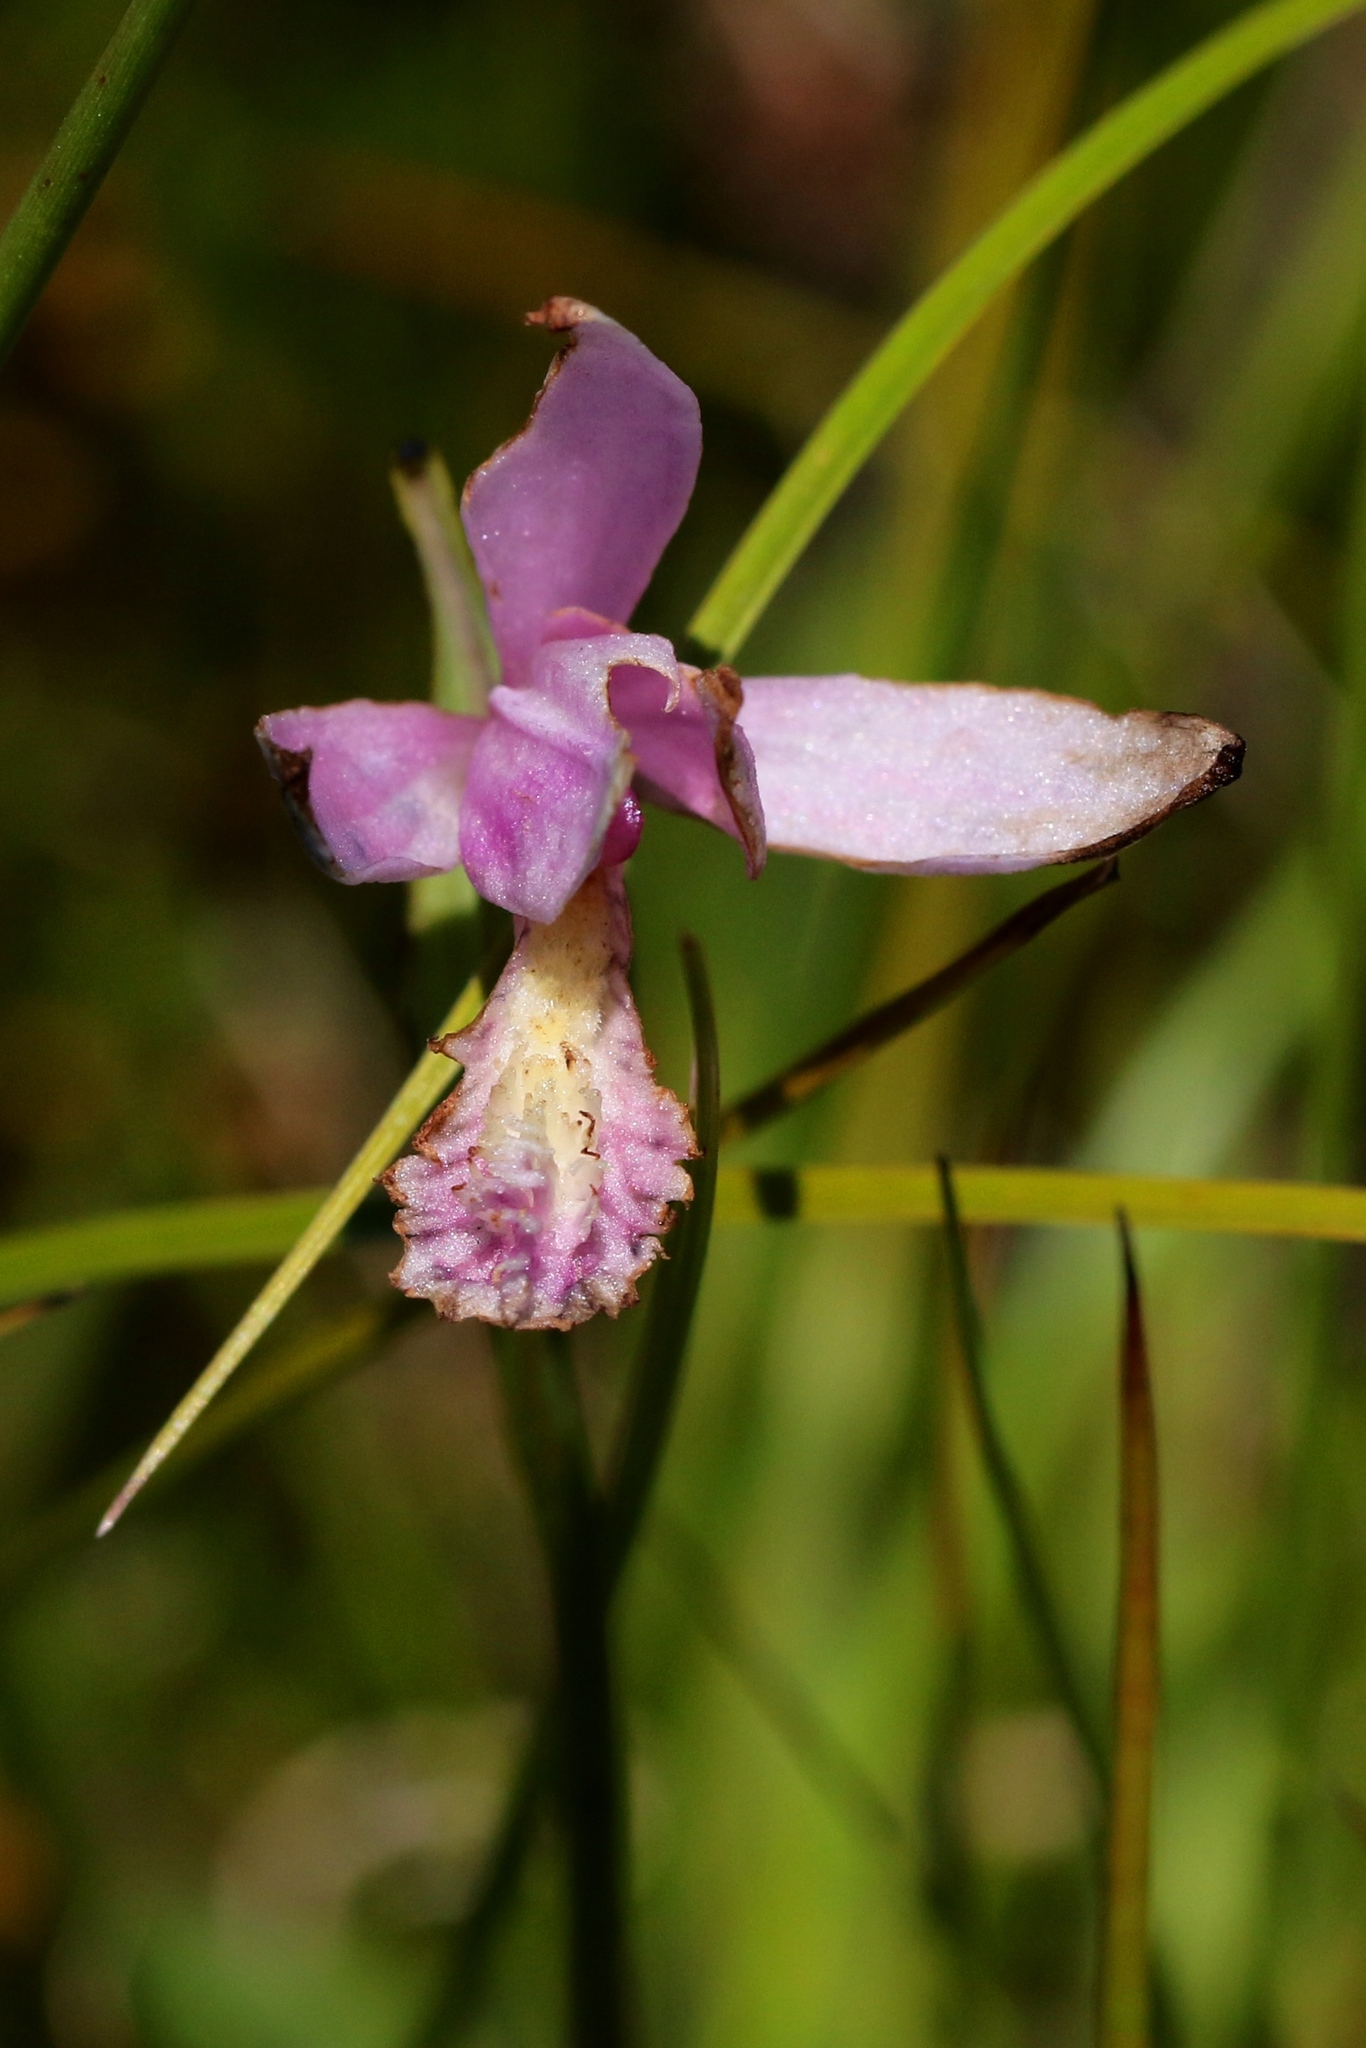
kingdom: Plantae
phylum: Tracheophyta
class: Liliopsida
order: Asparagales
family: Orchidaceae
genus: Pogonia
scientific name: Pogonia ophioglossoides
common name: Rose pogonia
